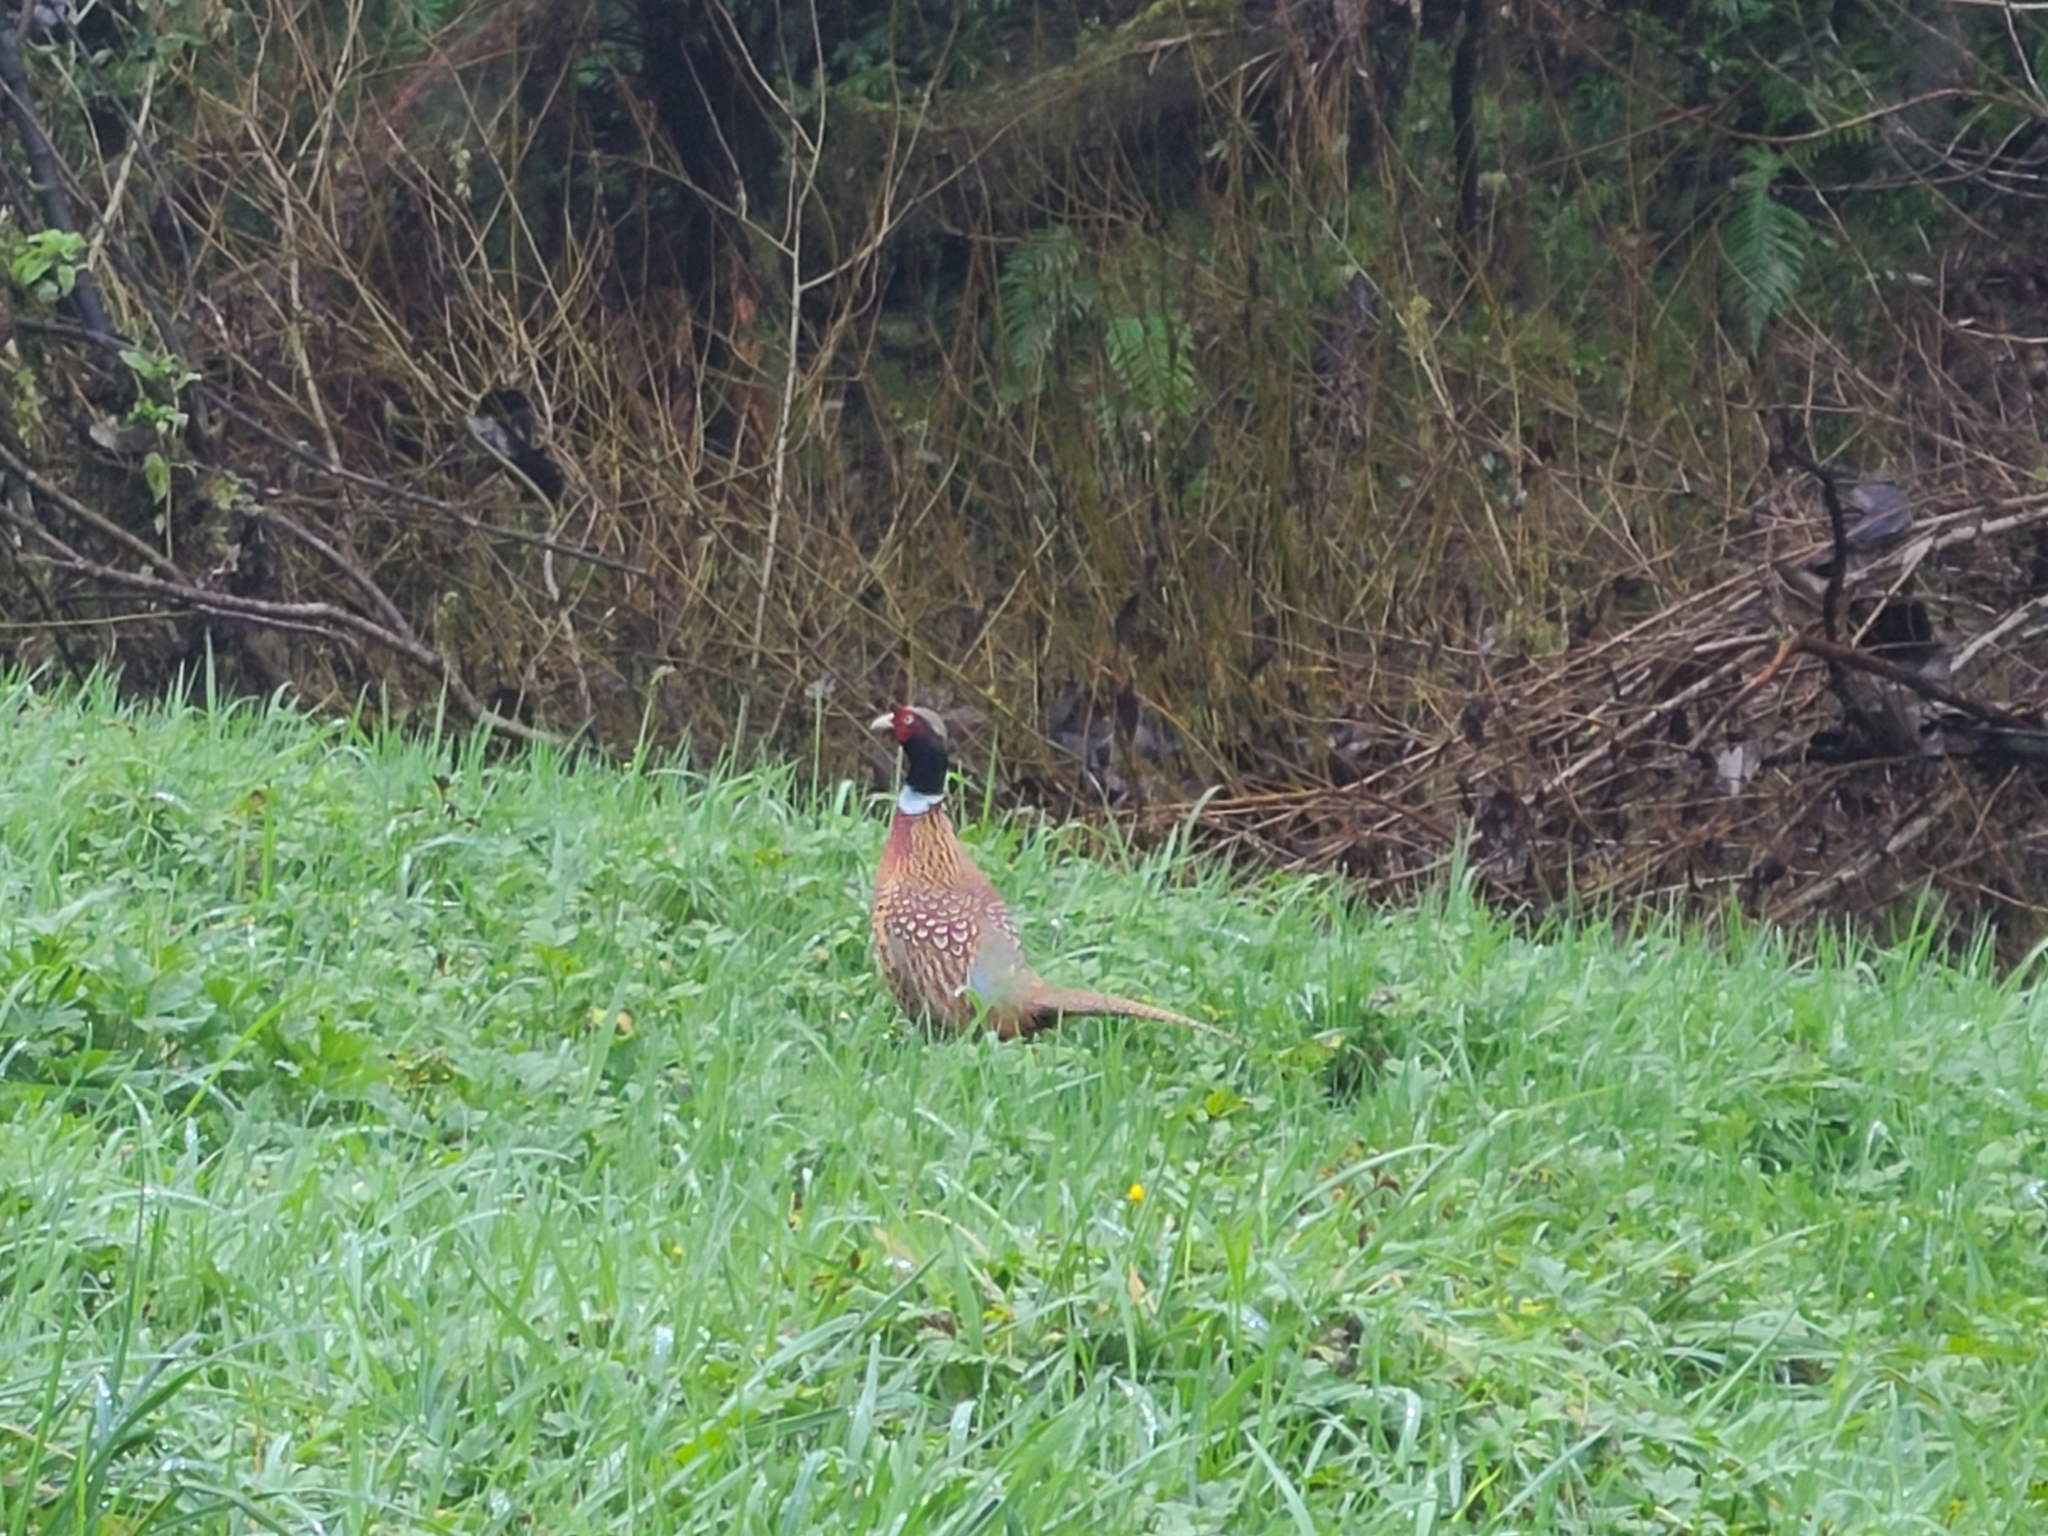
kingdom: Animalia
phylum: Chordata
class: Aves
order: Galliformes
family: Phasianidae
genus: Phasianus
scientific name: Phasianus colchicus
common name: Common pheasant
